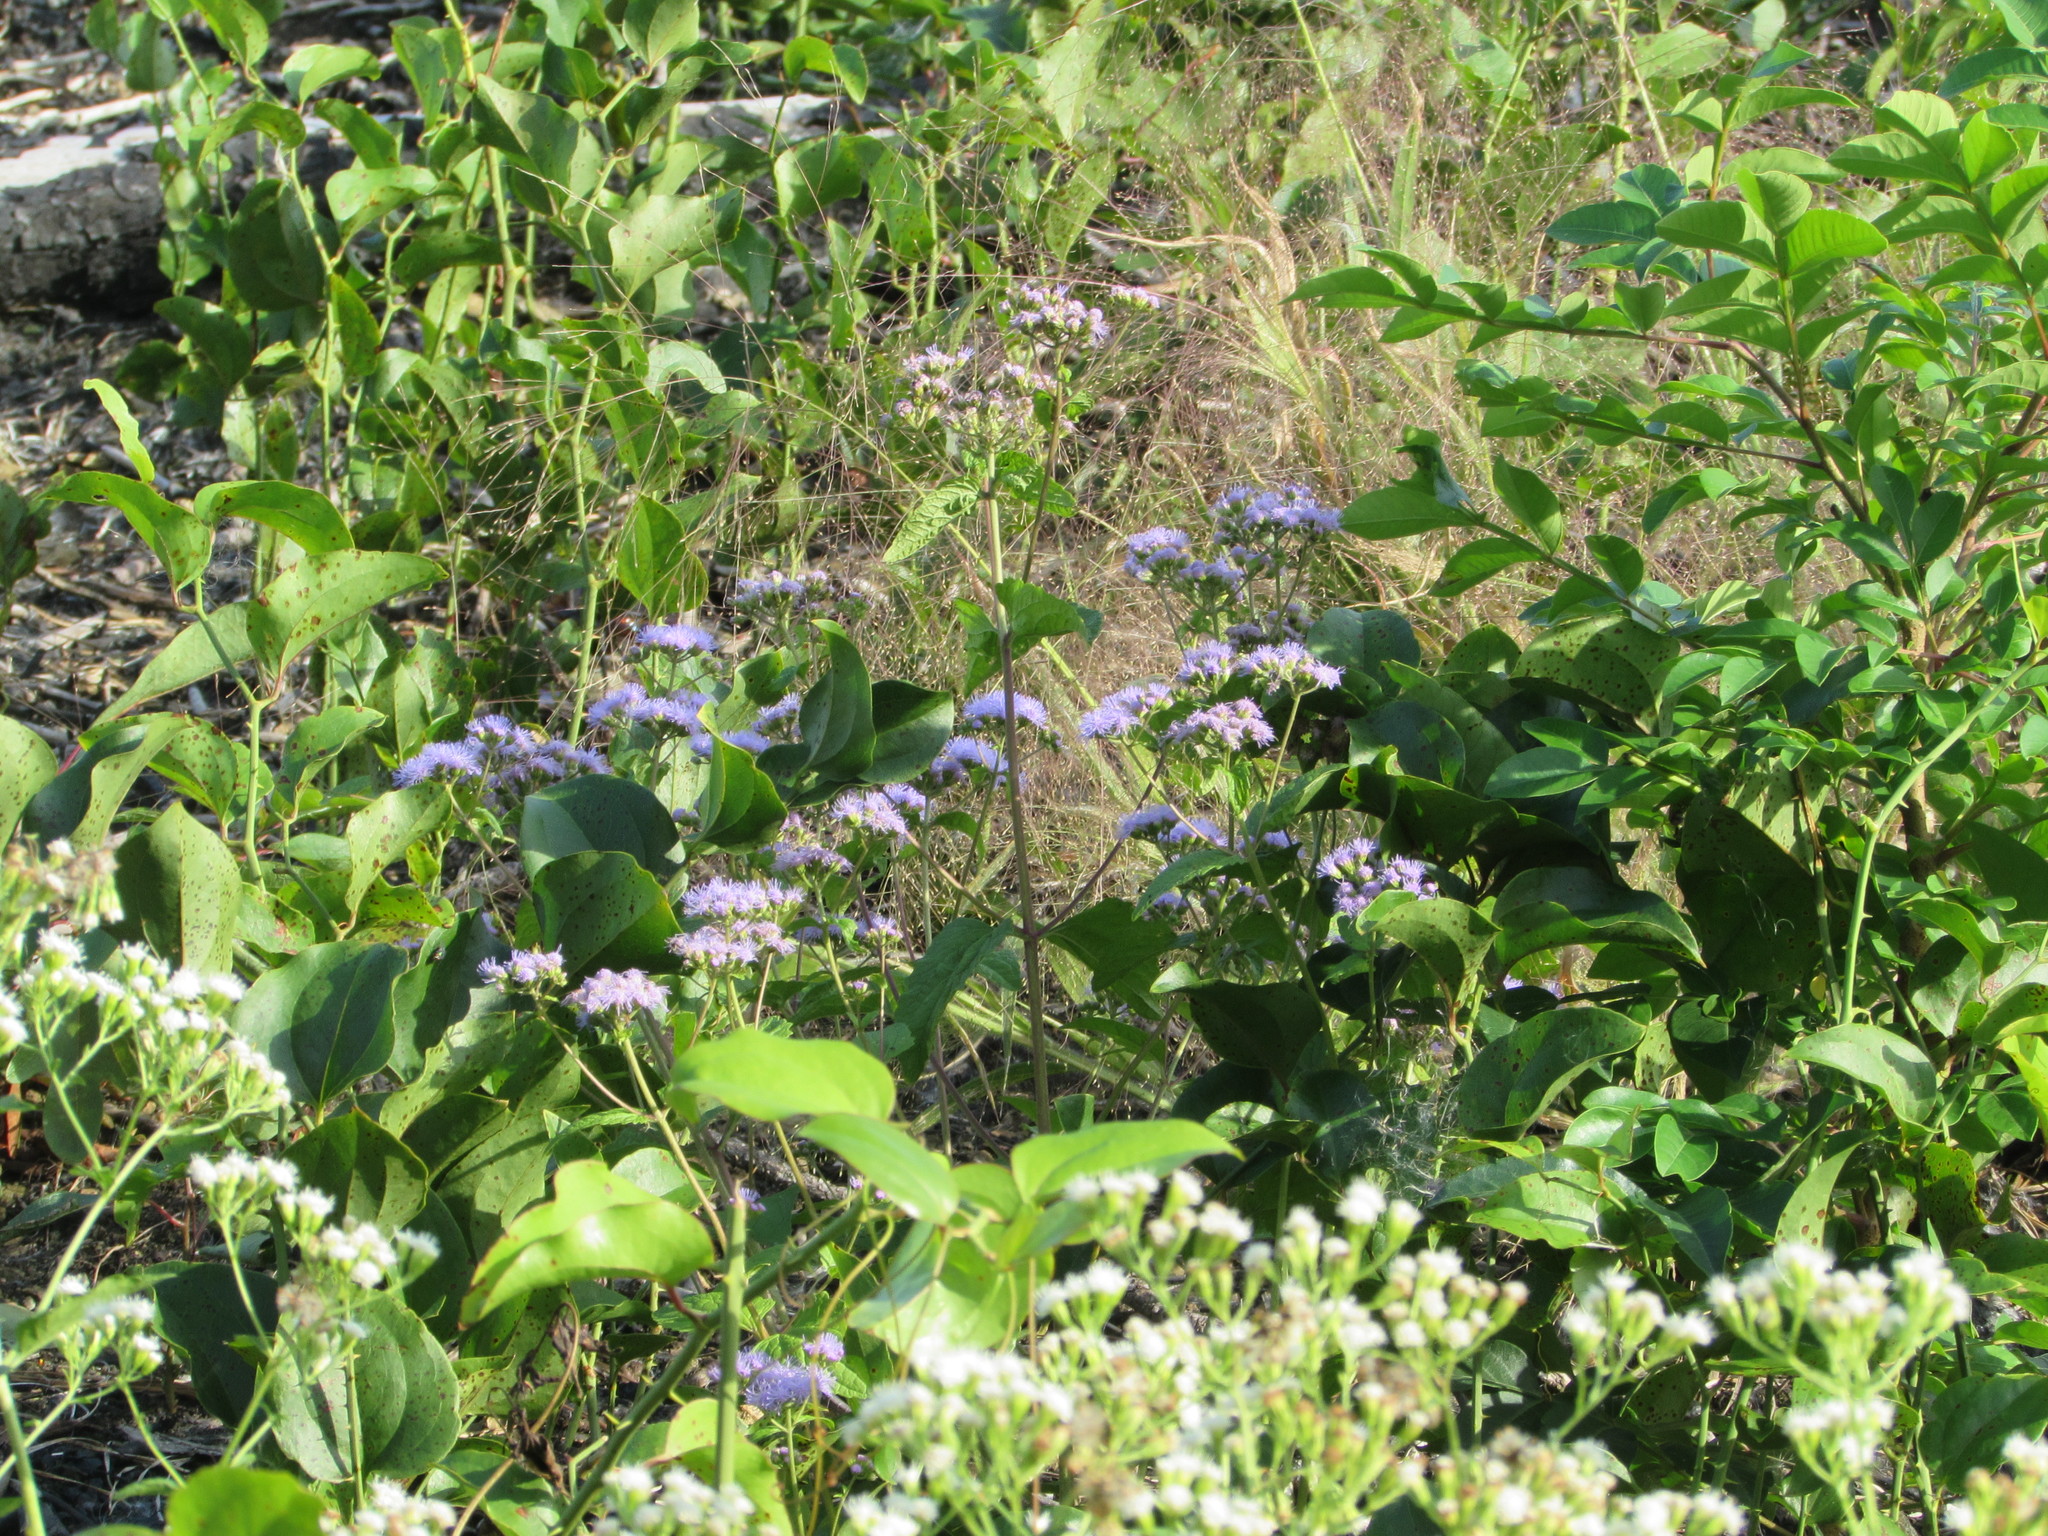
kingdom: Plantae
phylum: Tracheophyta
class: Magnoliopsida
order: Asterales
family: Asteraceae
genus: Conoclinium
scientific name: Conoclinium coelestinum
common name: Blue mistflower
